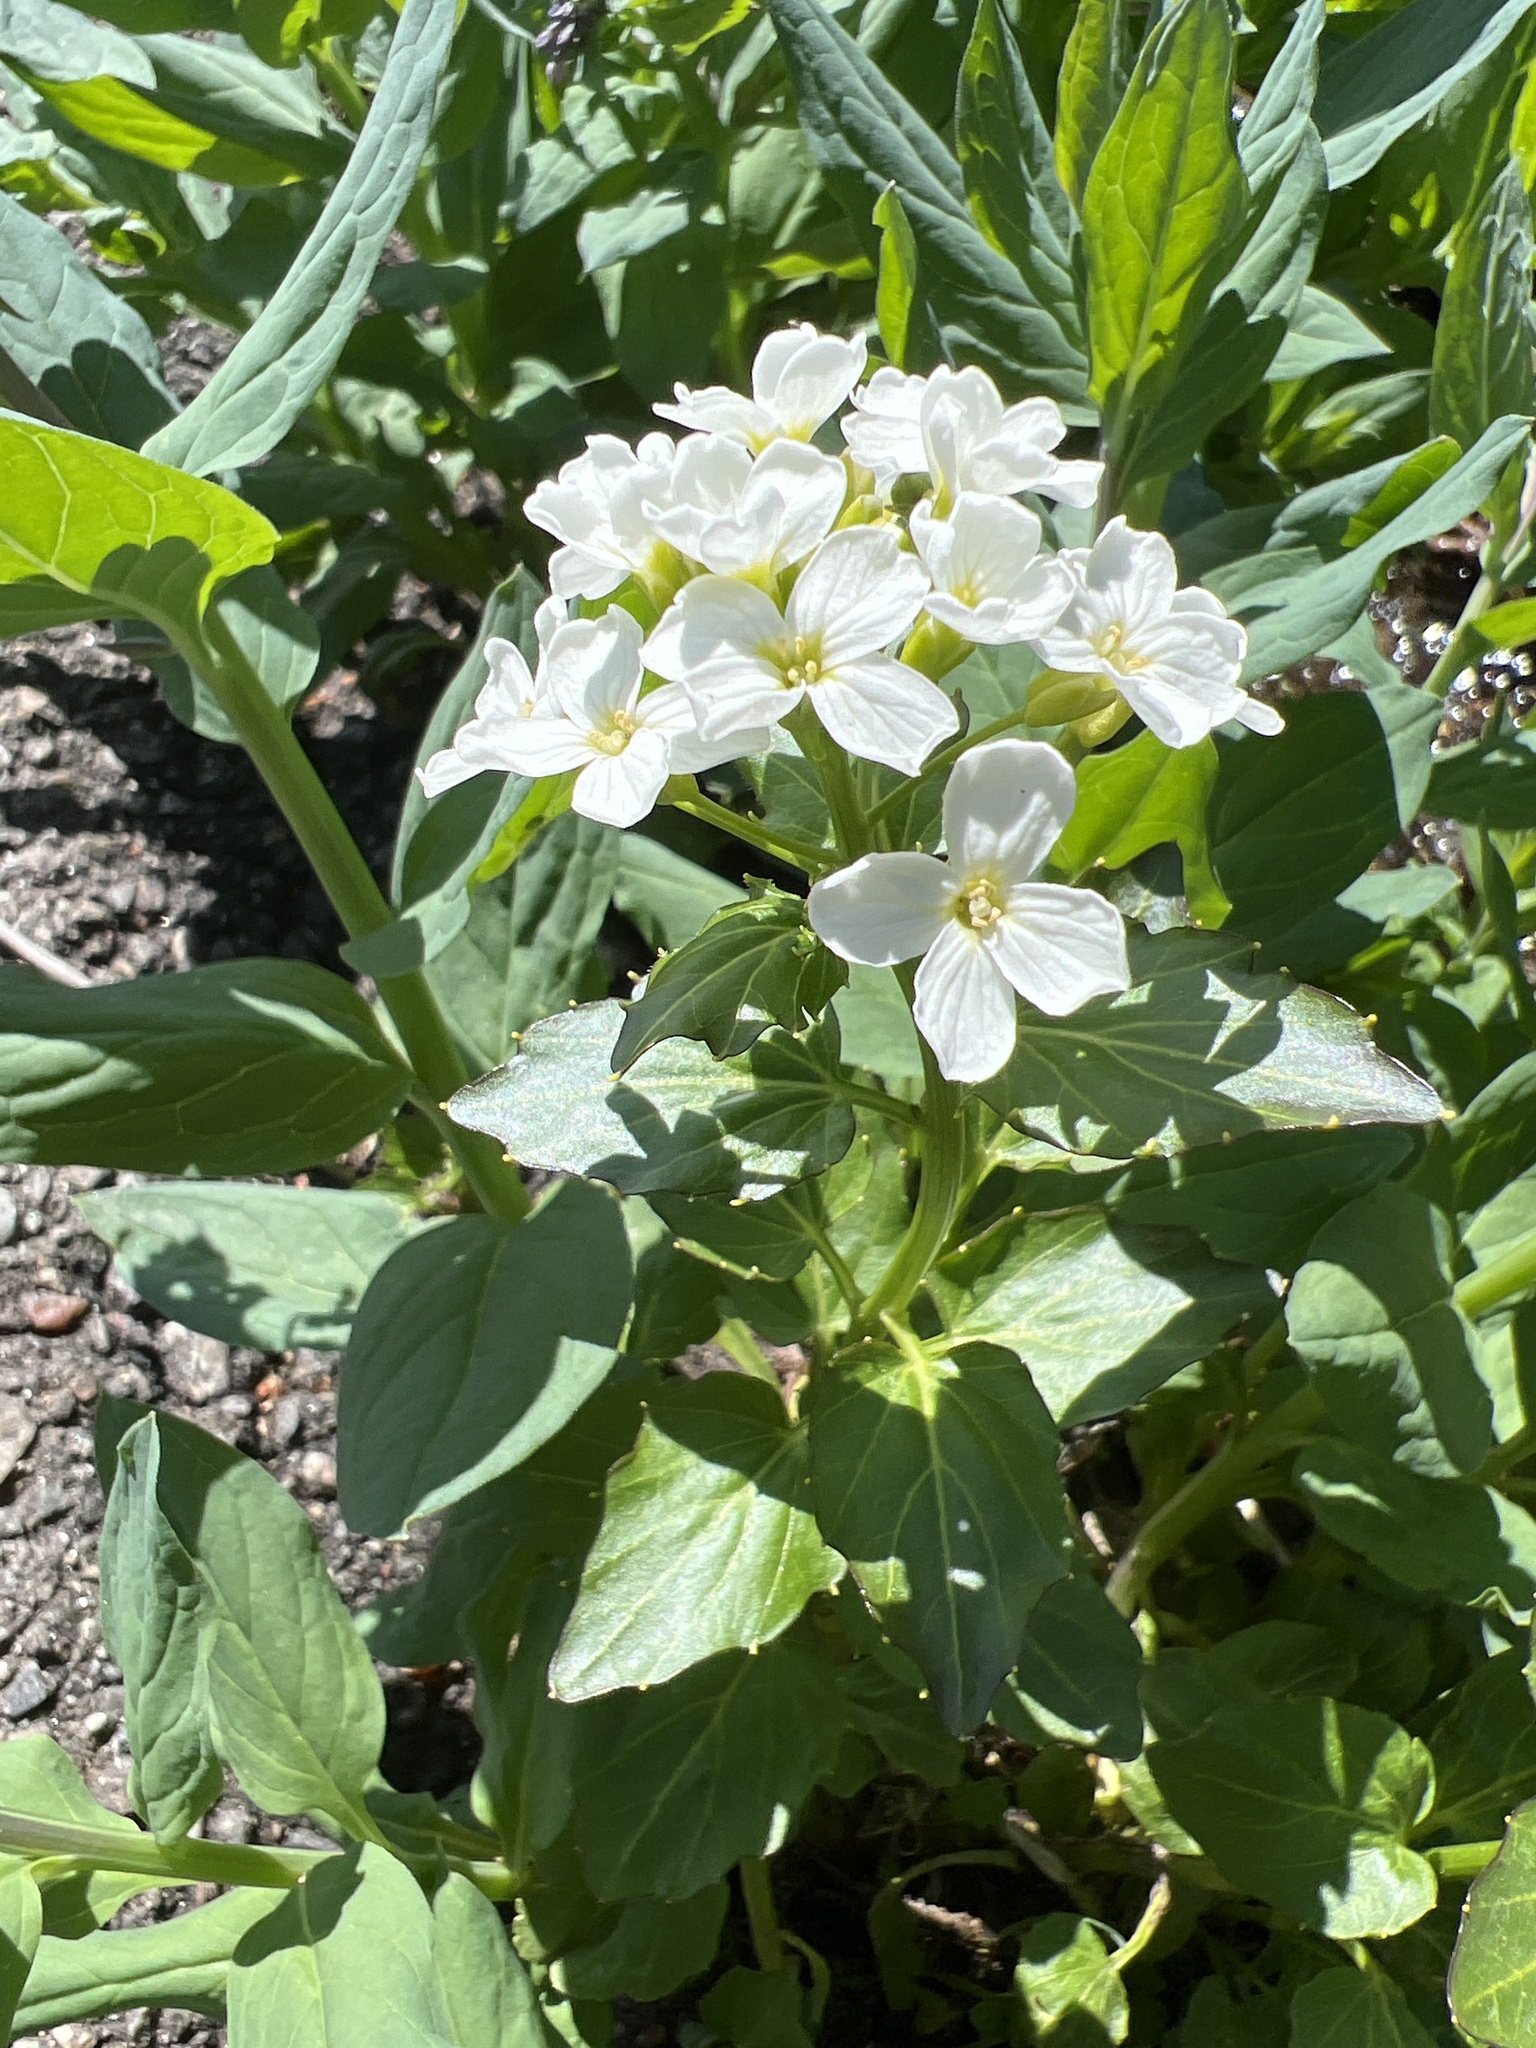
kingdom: Plantae
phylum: Tracheophyta
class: Magnoliopsida
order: Brassicales
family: Brassicaceae
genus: Cardamine
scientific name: Cardamine cordifolia
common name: Heart-leaf bittercress
